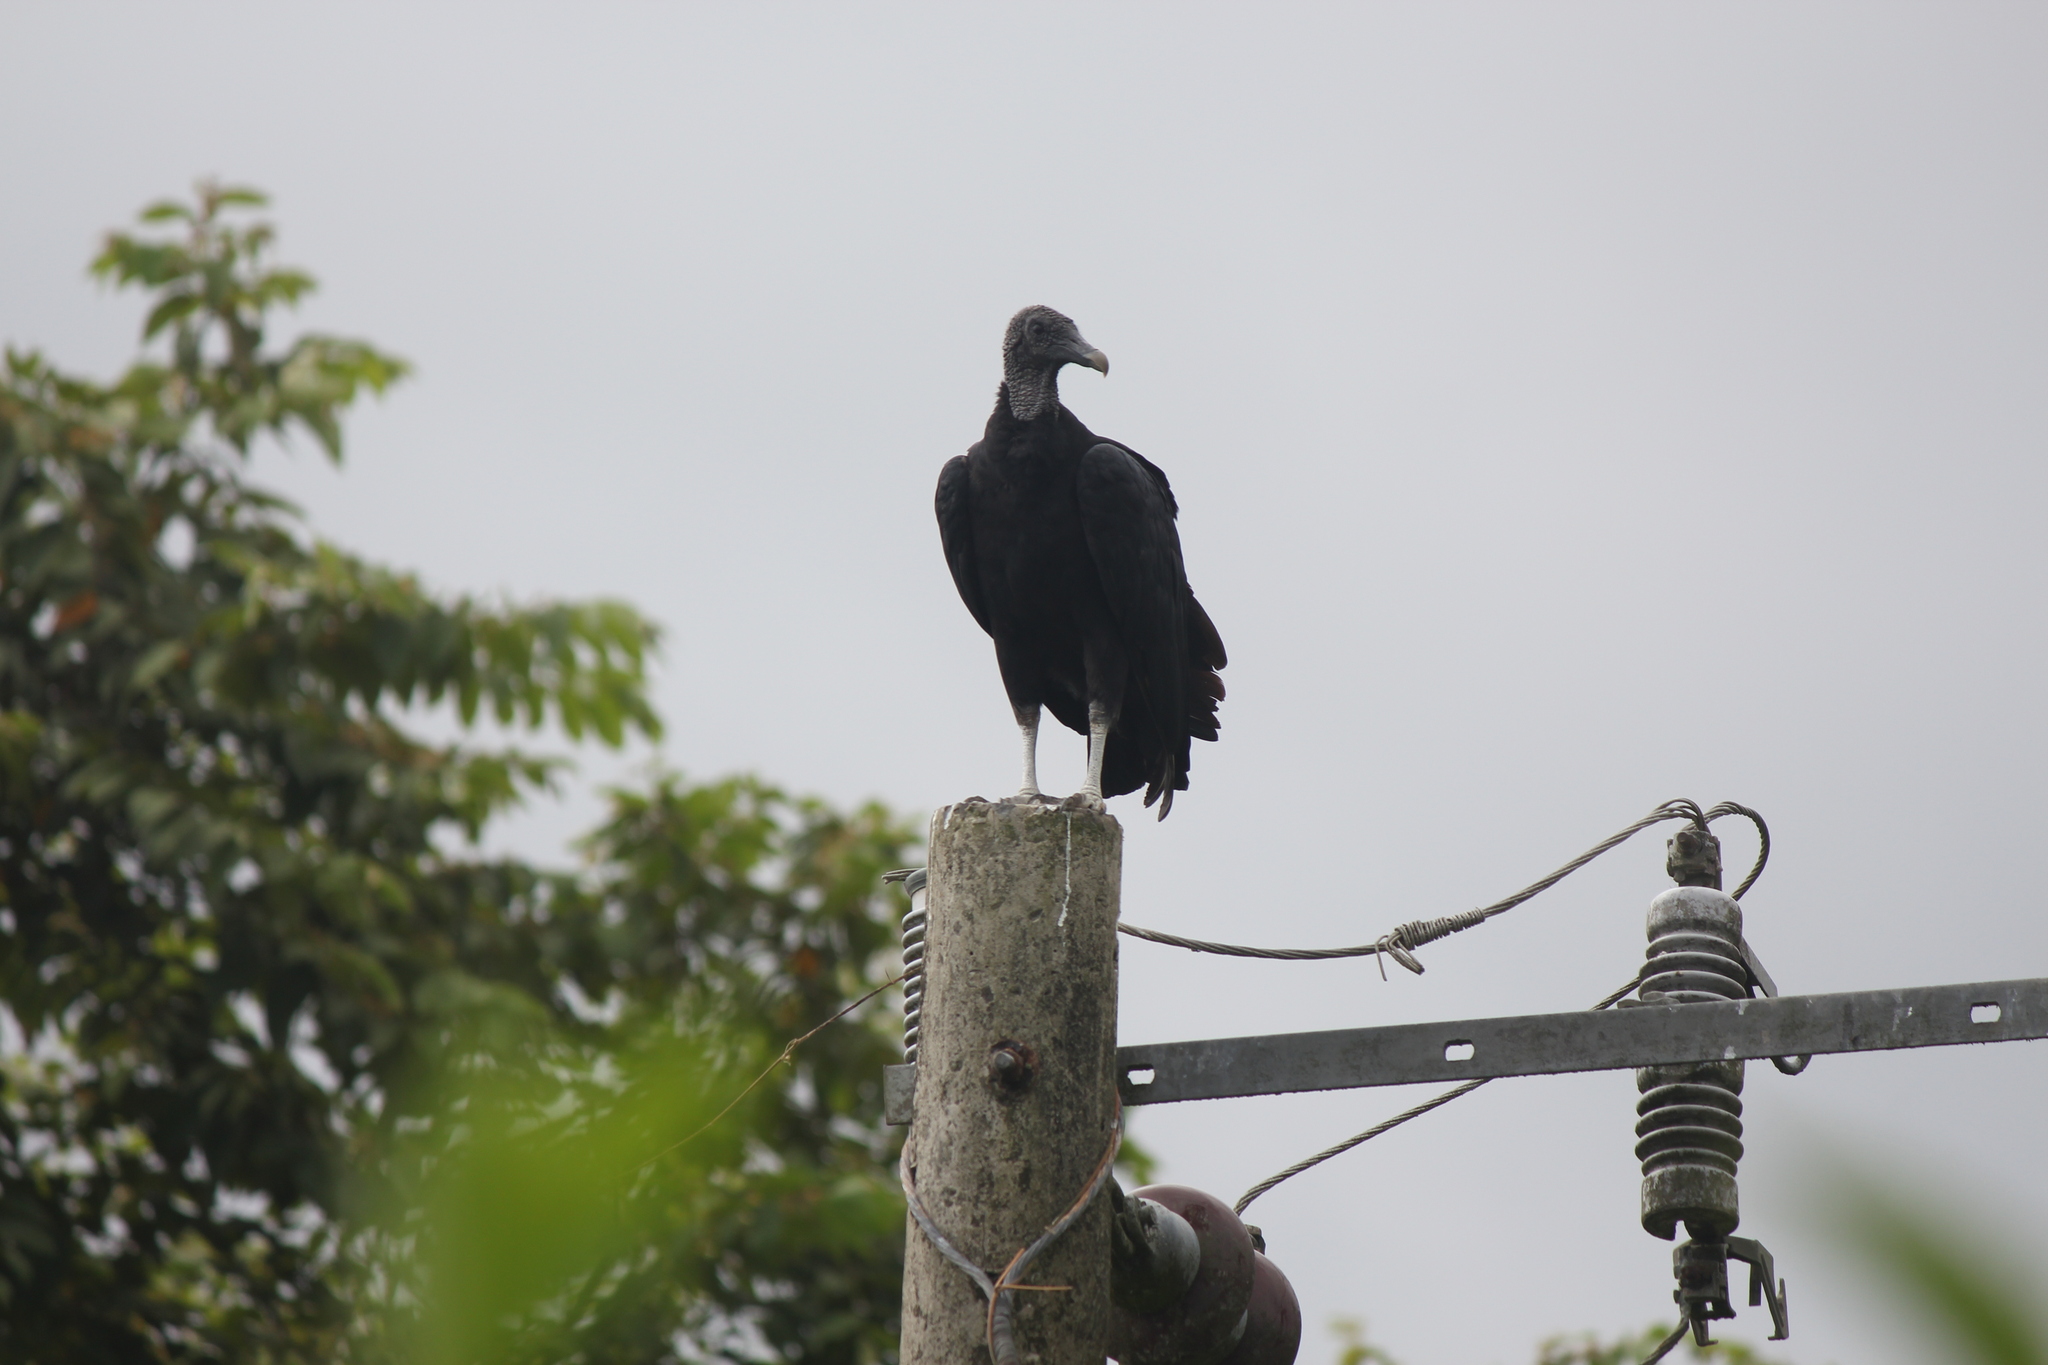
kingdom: Animalia
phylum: Chordata
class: Aves
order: Accipitriformes
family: Cathartidae
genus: Coragyps
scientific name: Coragyps atratus
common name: Black vulture
